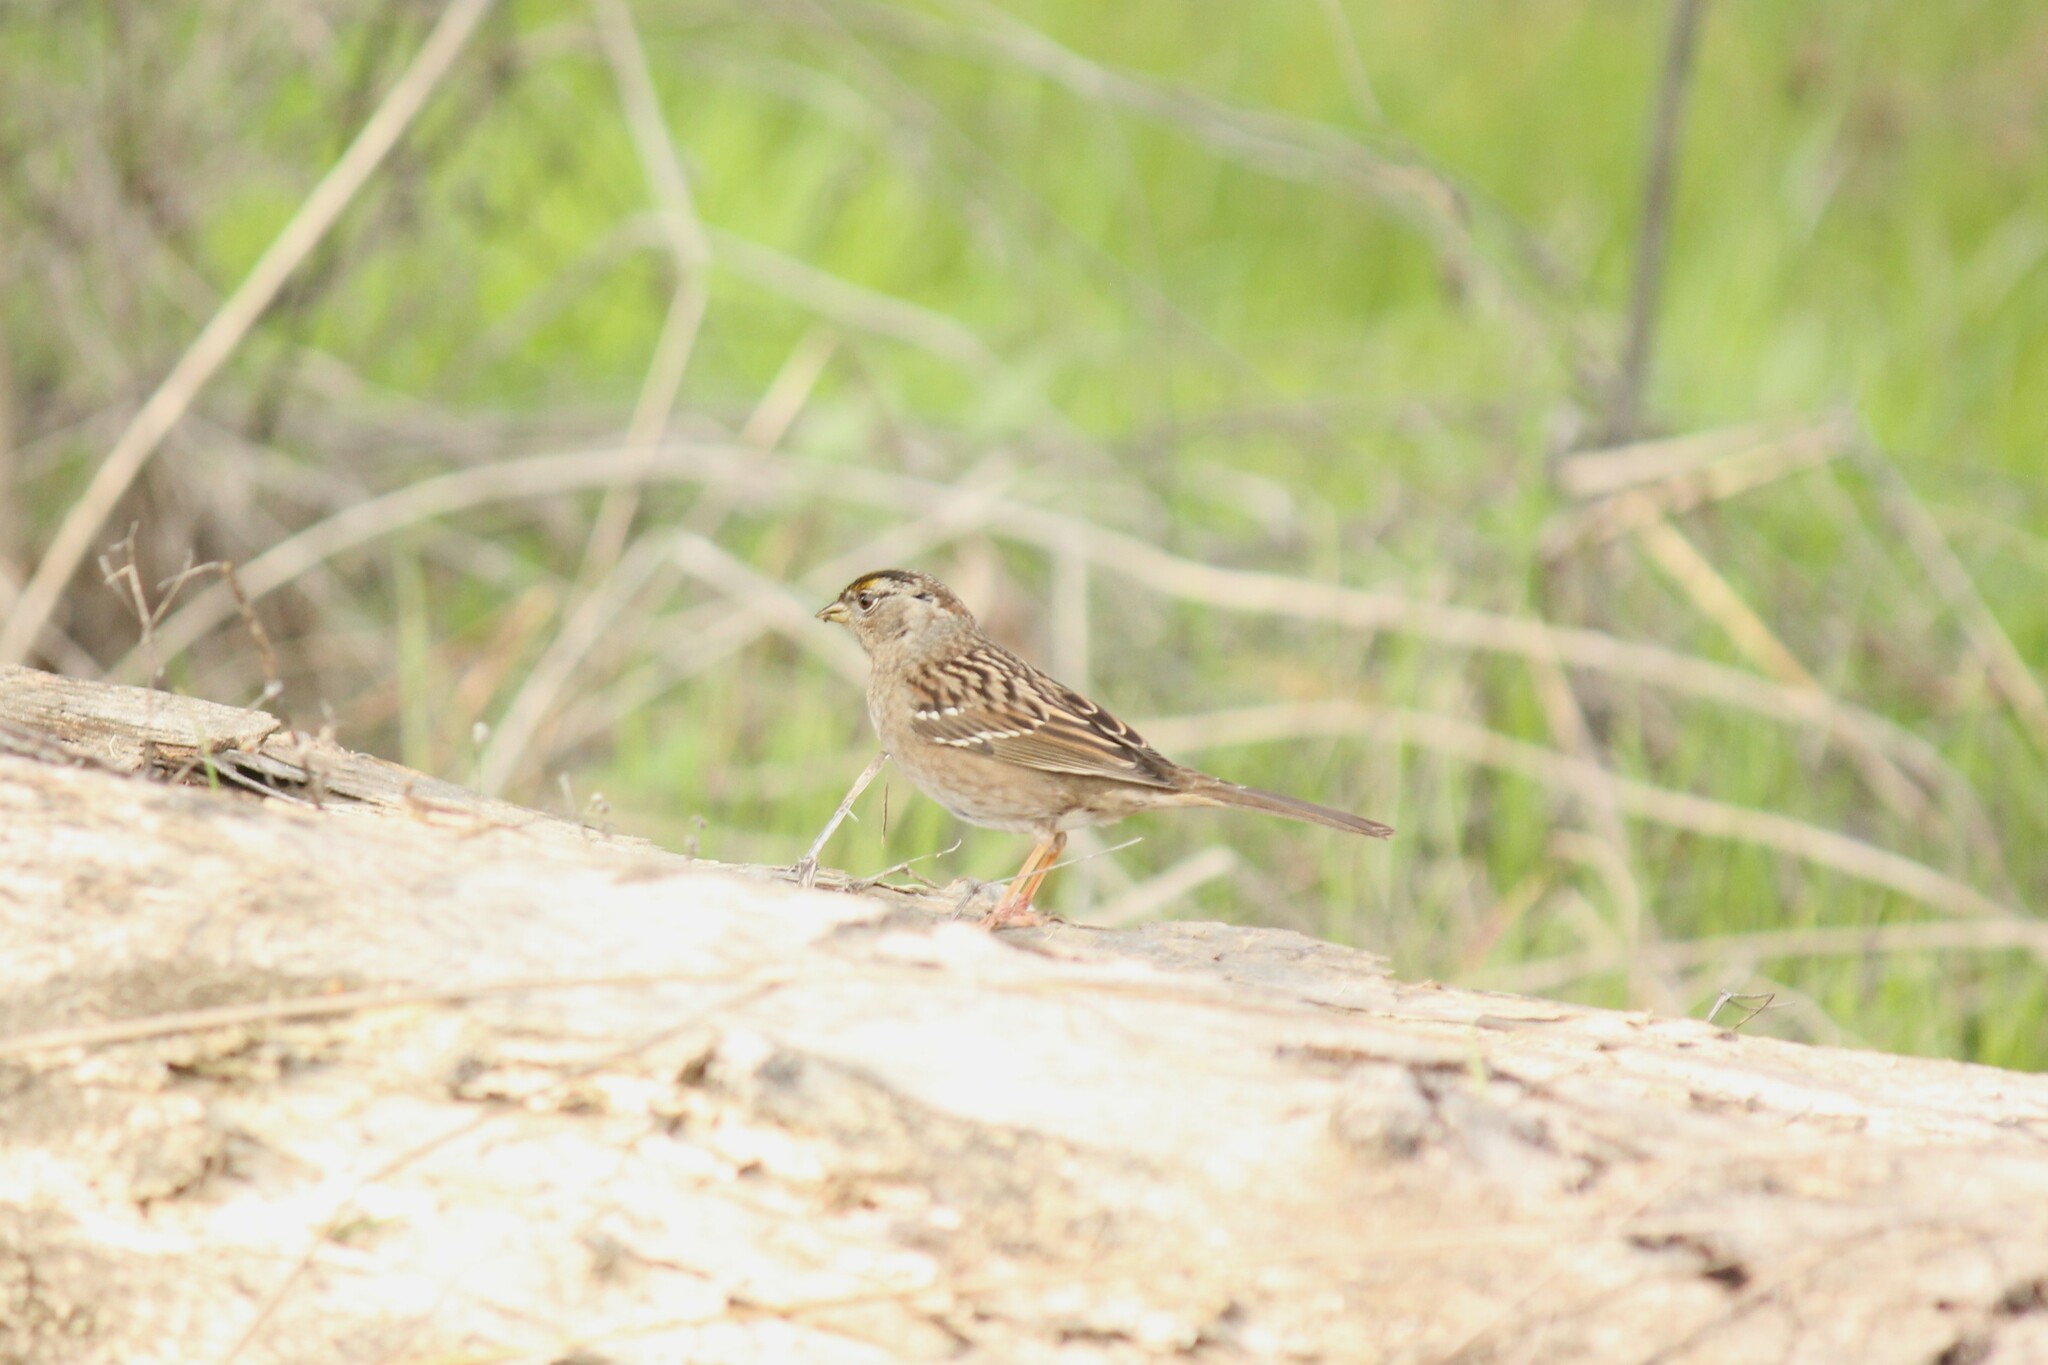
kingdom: Animalia
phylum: Chordata
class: Aves
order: Passeriformes
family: Passerellidae
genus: Zonotrichia
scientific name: Zonotrichia atricapilla
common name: Golden-crowned sparrow
